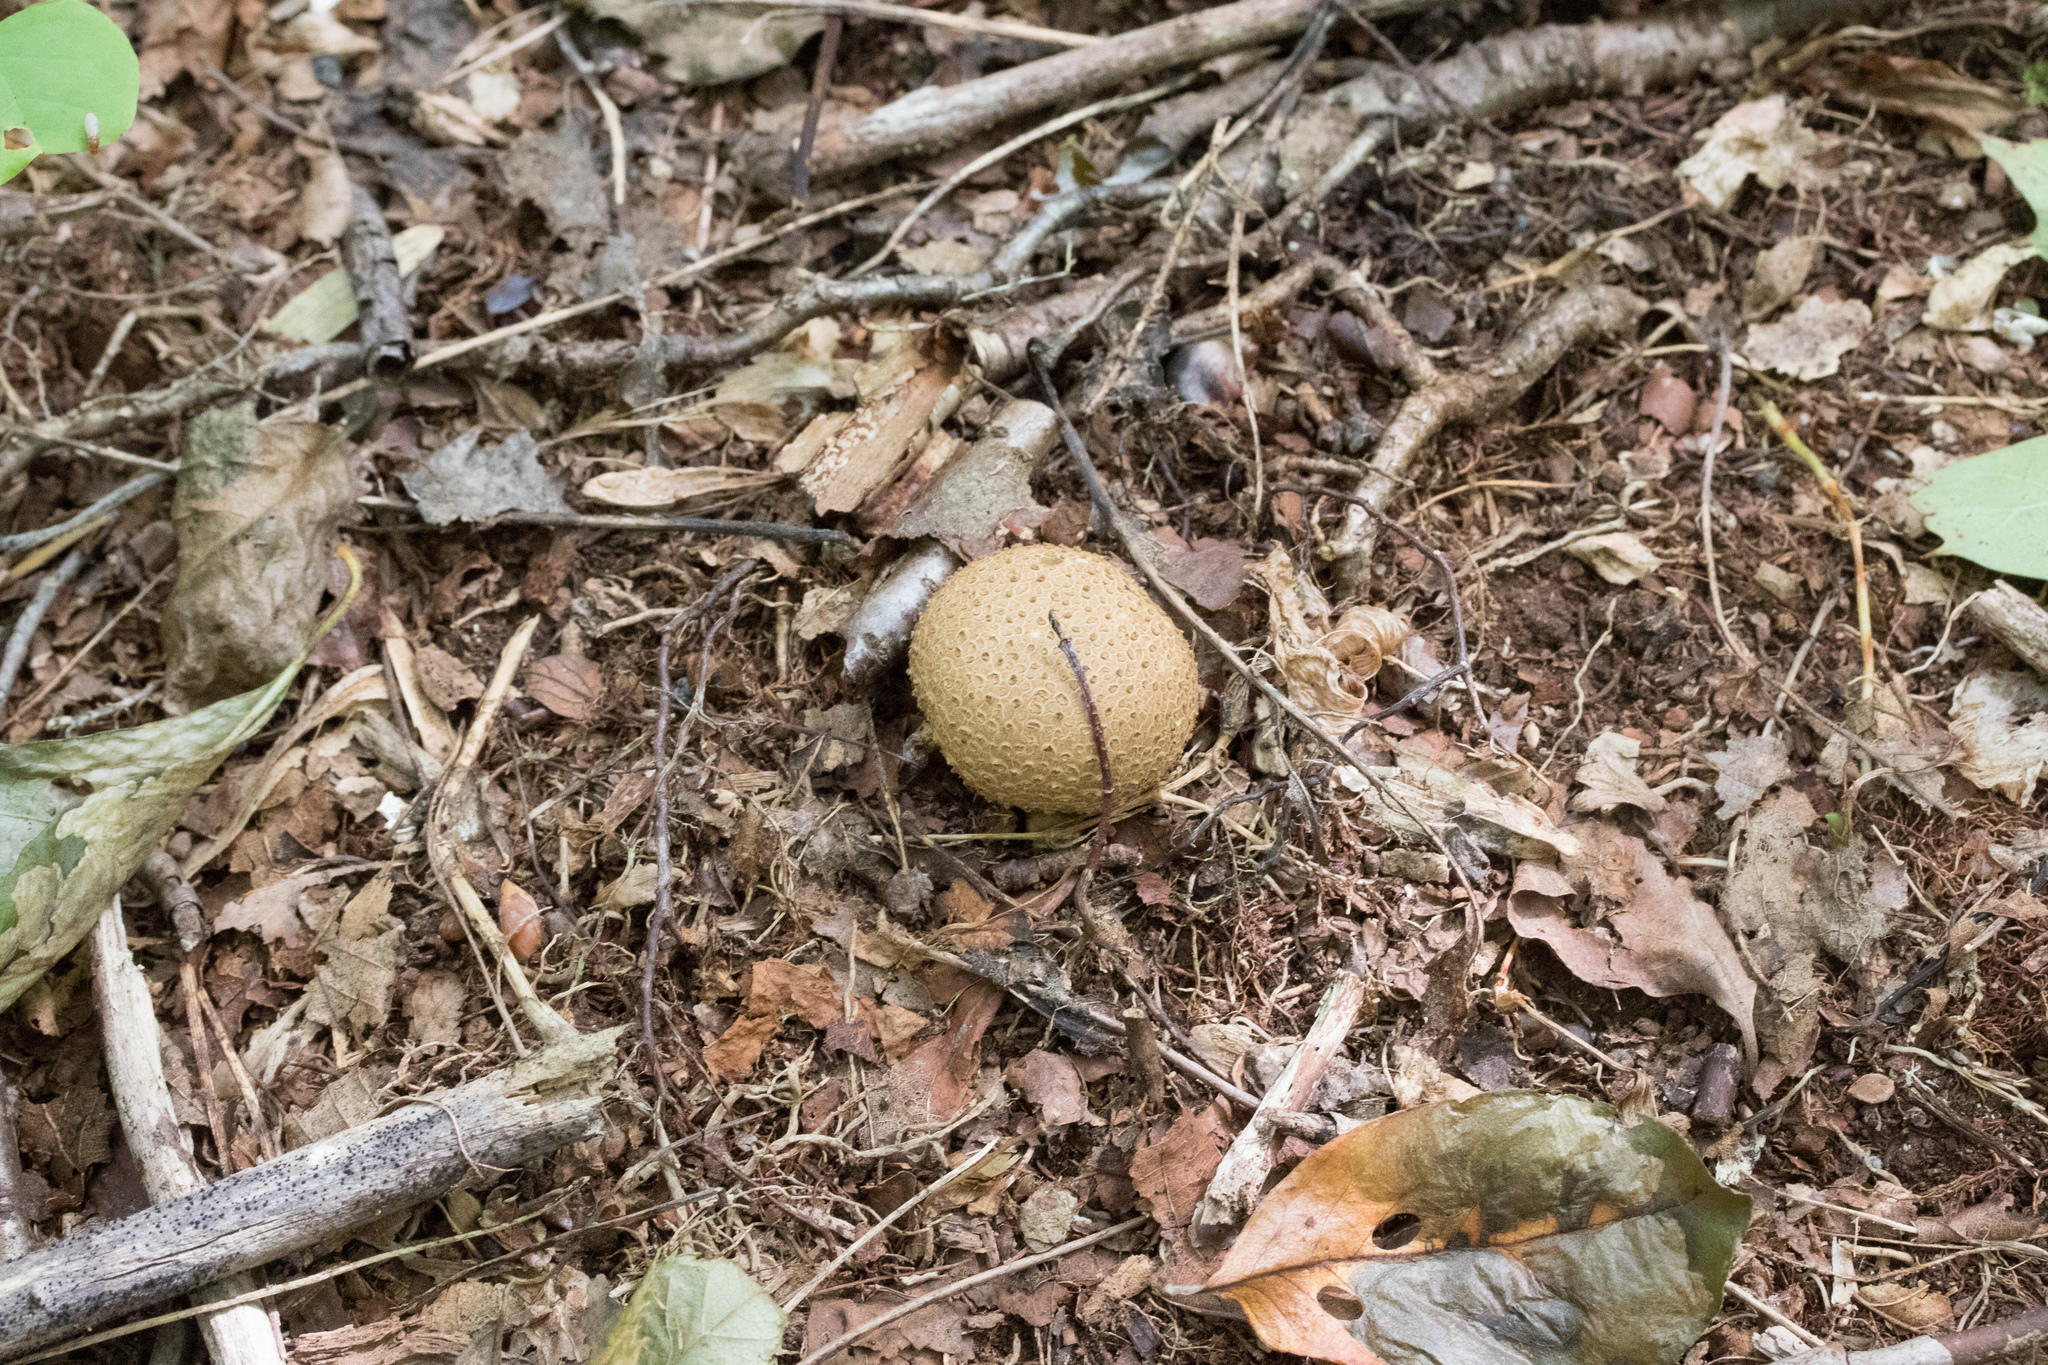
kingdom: Fungi
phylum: Basidiomycota
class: Agaricomycetes
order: Boletales
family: Sclerodermataceae
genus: Scleroderma
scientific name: Scleroderma citrinum
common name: Common earthball
